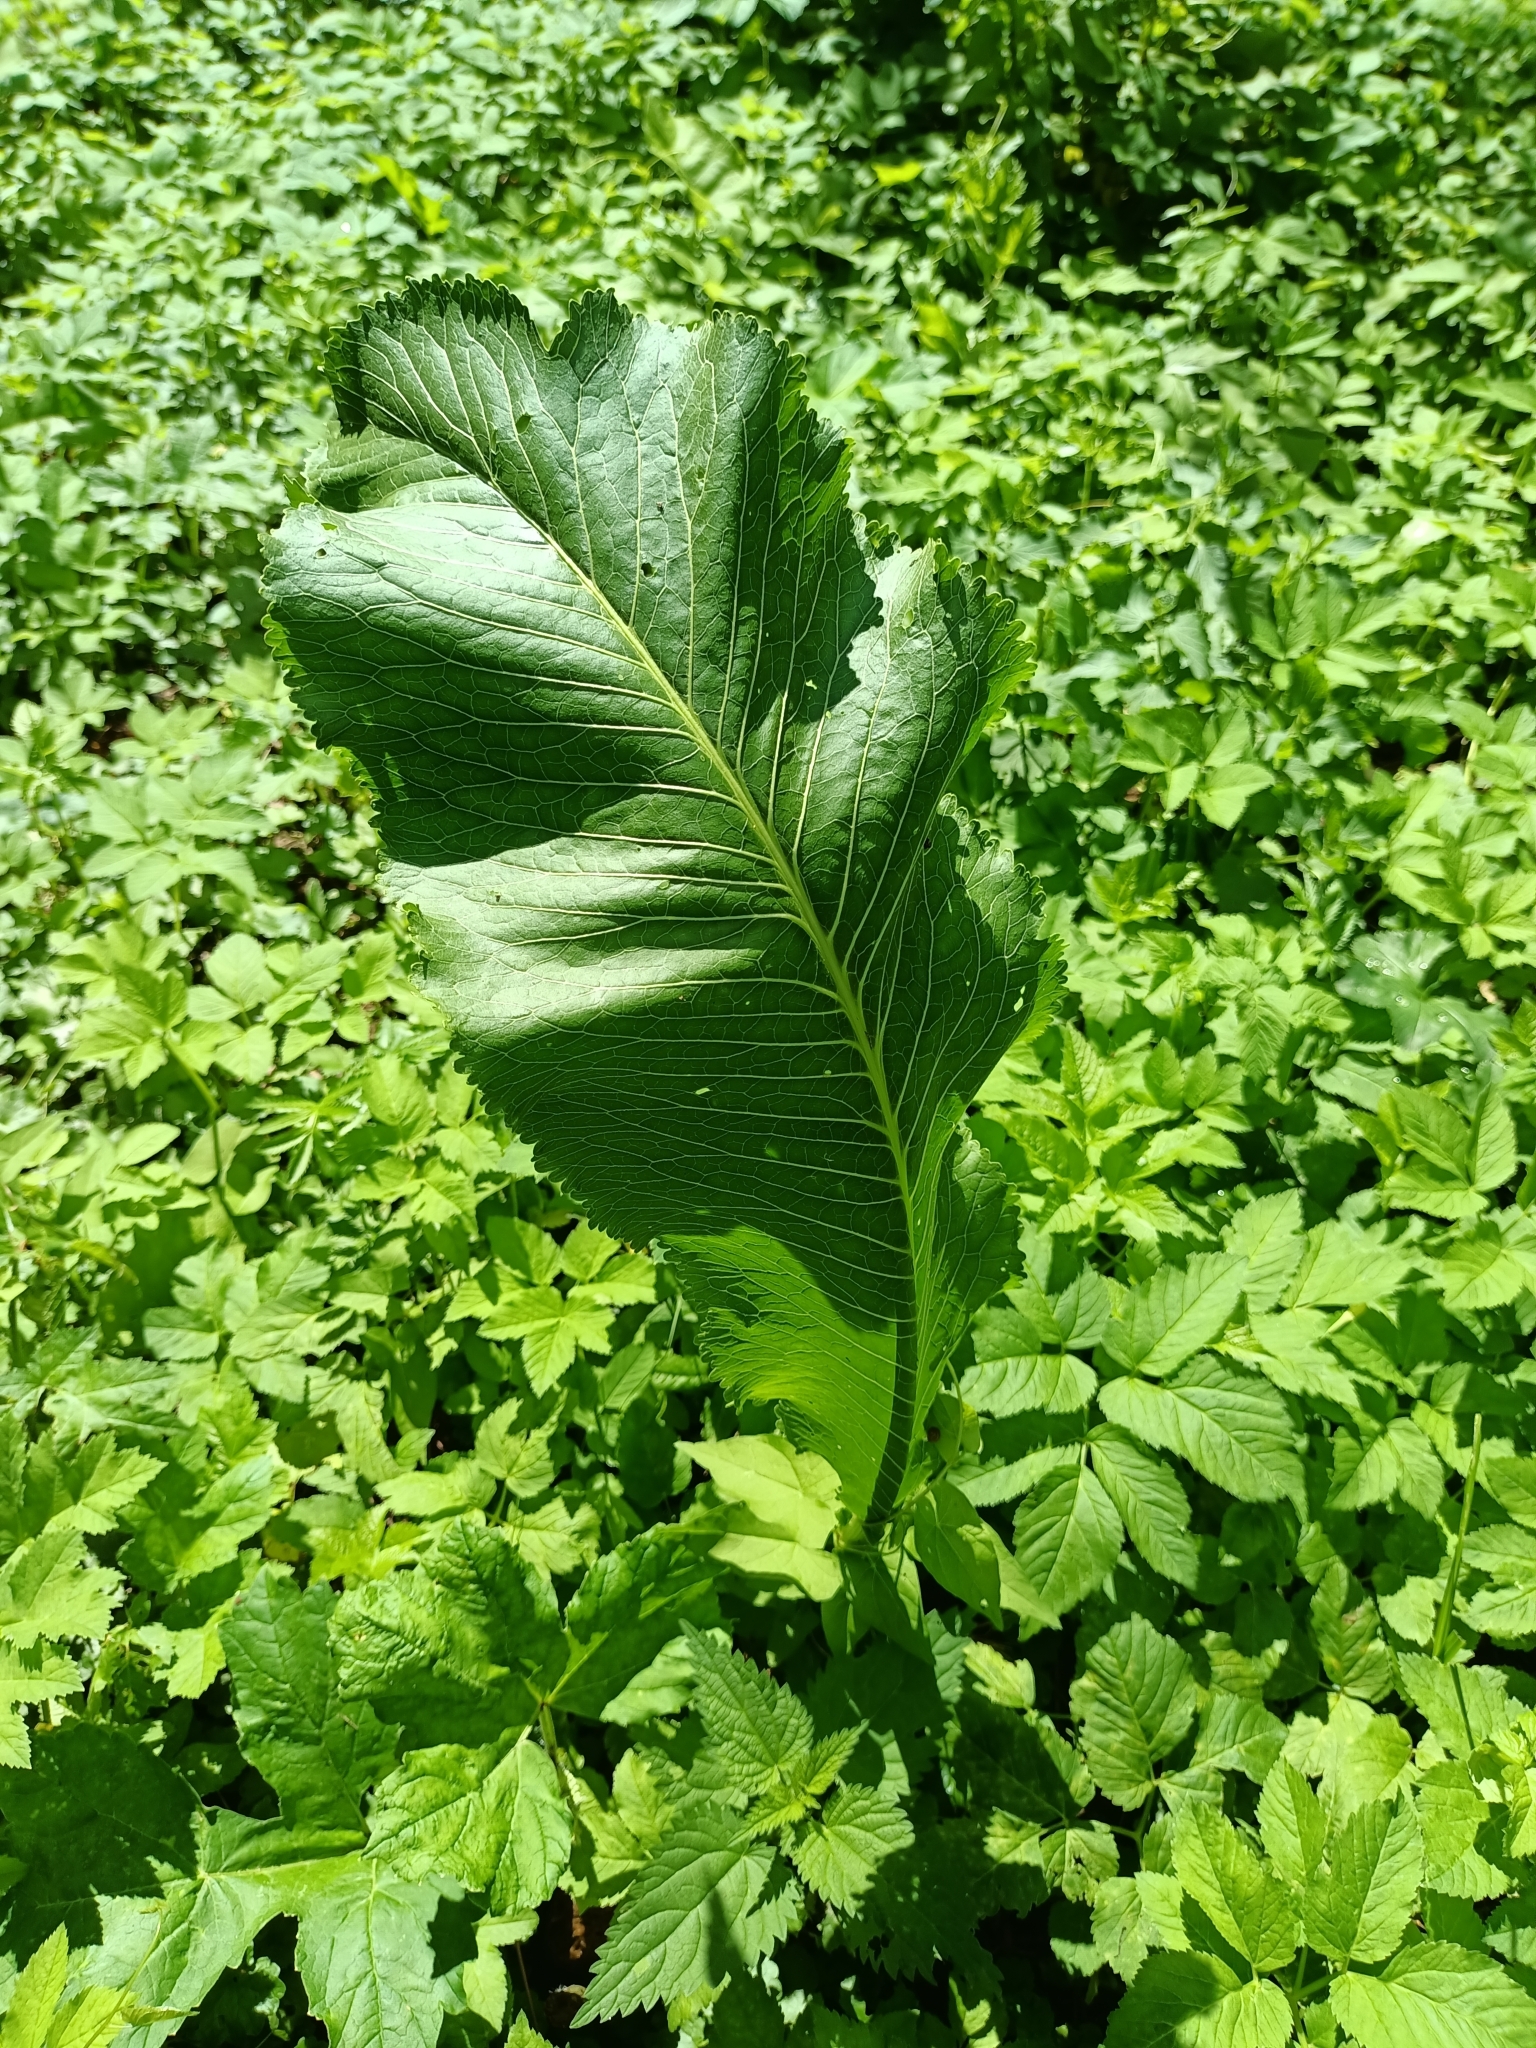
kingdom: Plantae
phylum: Tracheophyta
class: Magnoliopsida
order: Brassicales
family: Brassicaceae
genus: Armoracia
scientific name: Armoracia rusticana
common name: Horseradish
